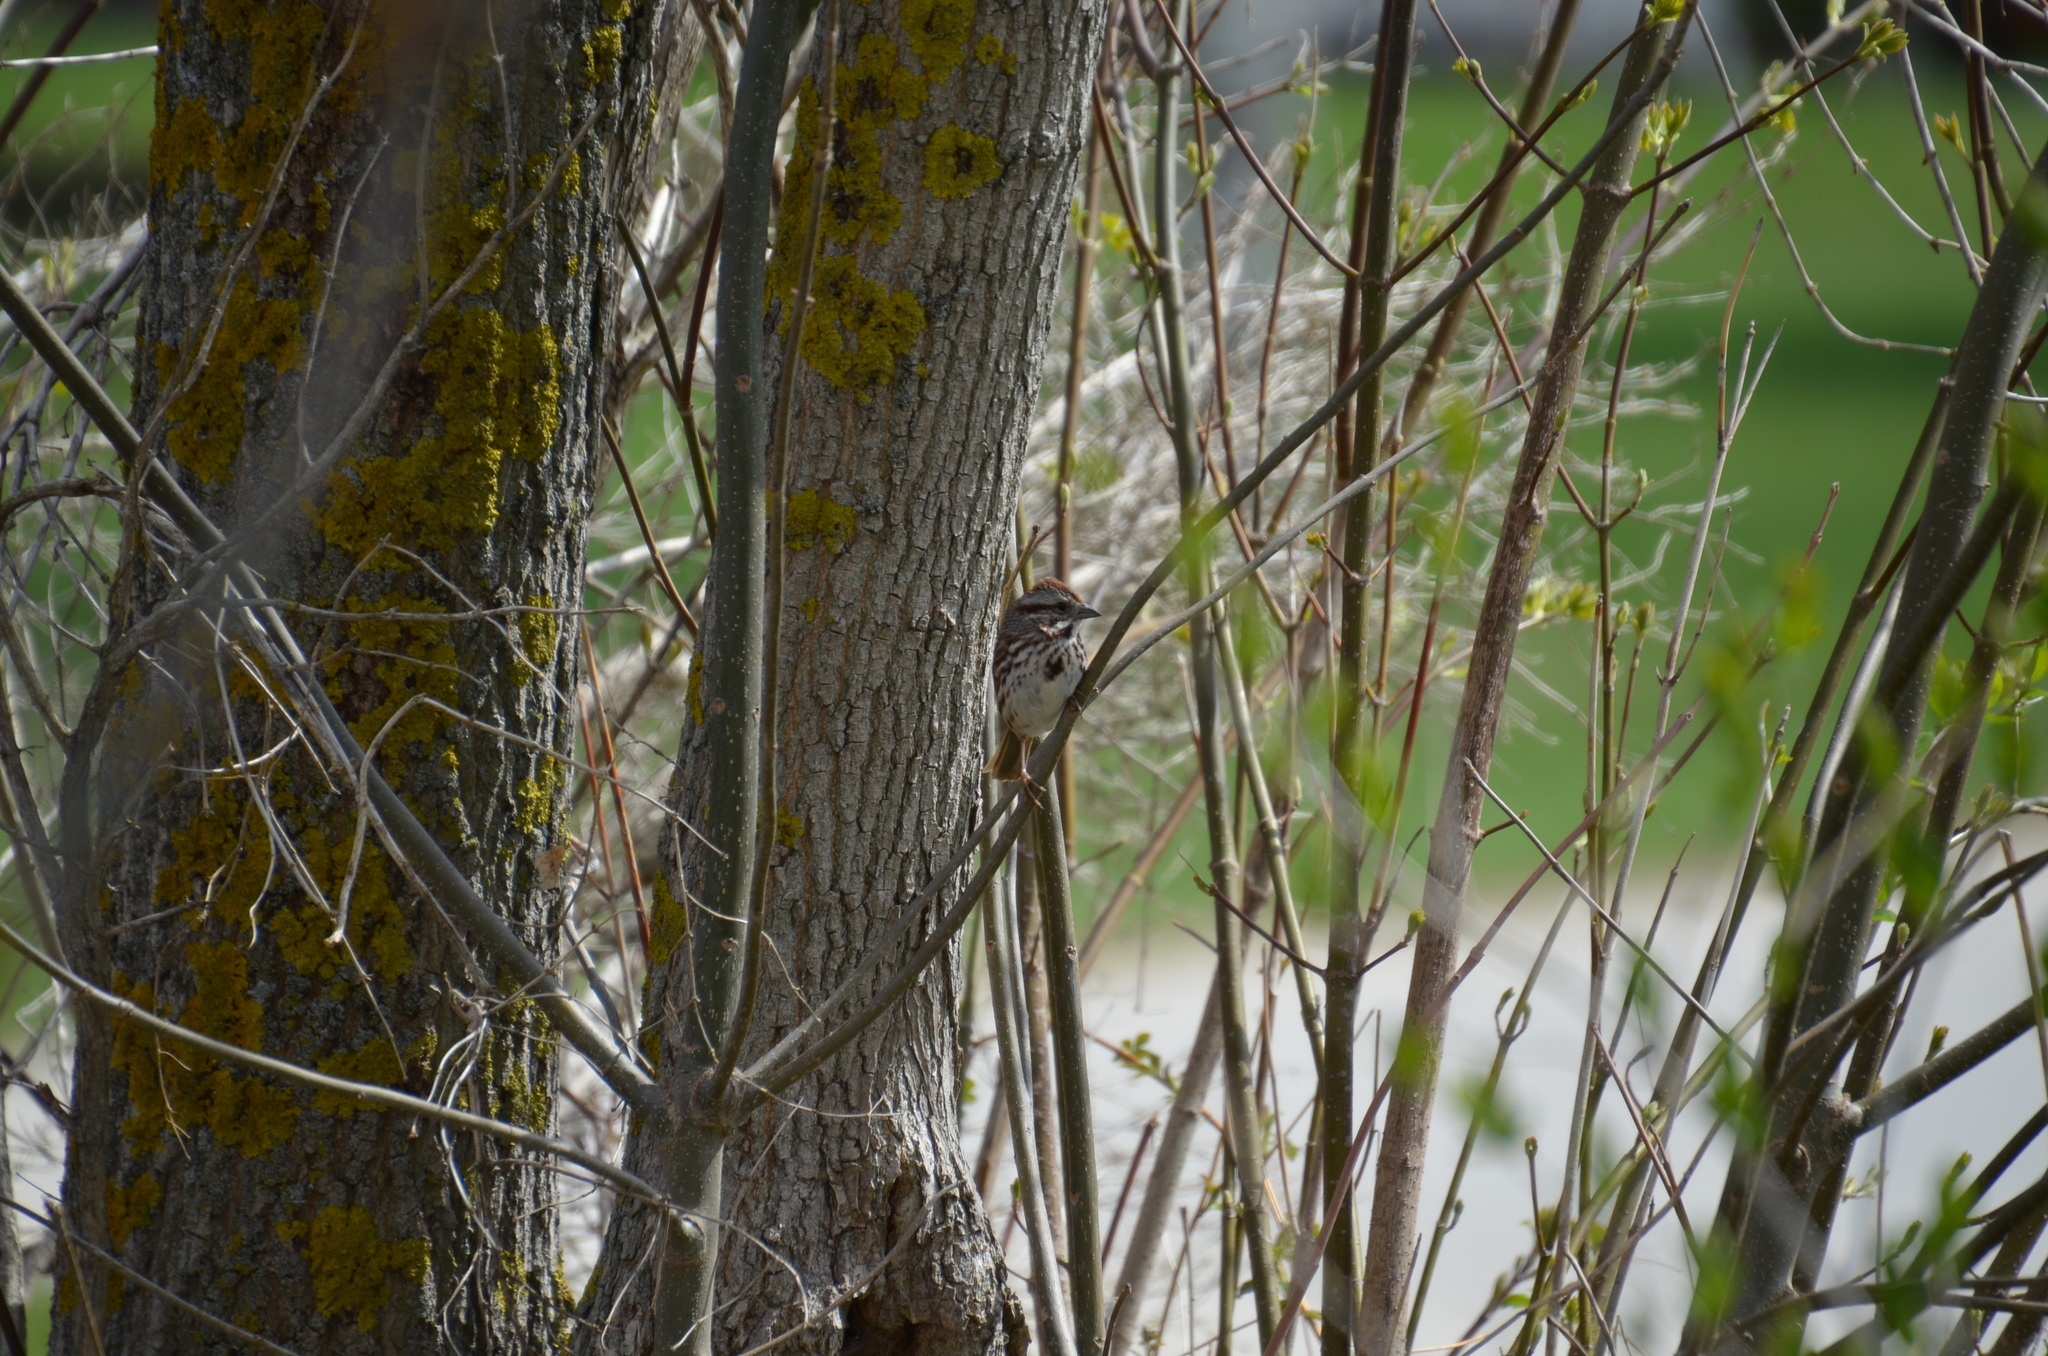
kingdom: Animalia
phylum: Chordata
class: Aves
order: Passeriformes
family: Passerellidae
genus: Melospiza
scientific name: Melospiza melodia
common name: Song sparrow
